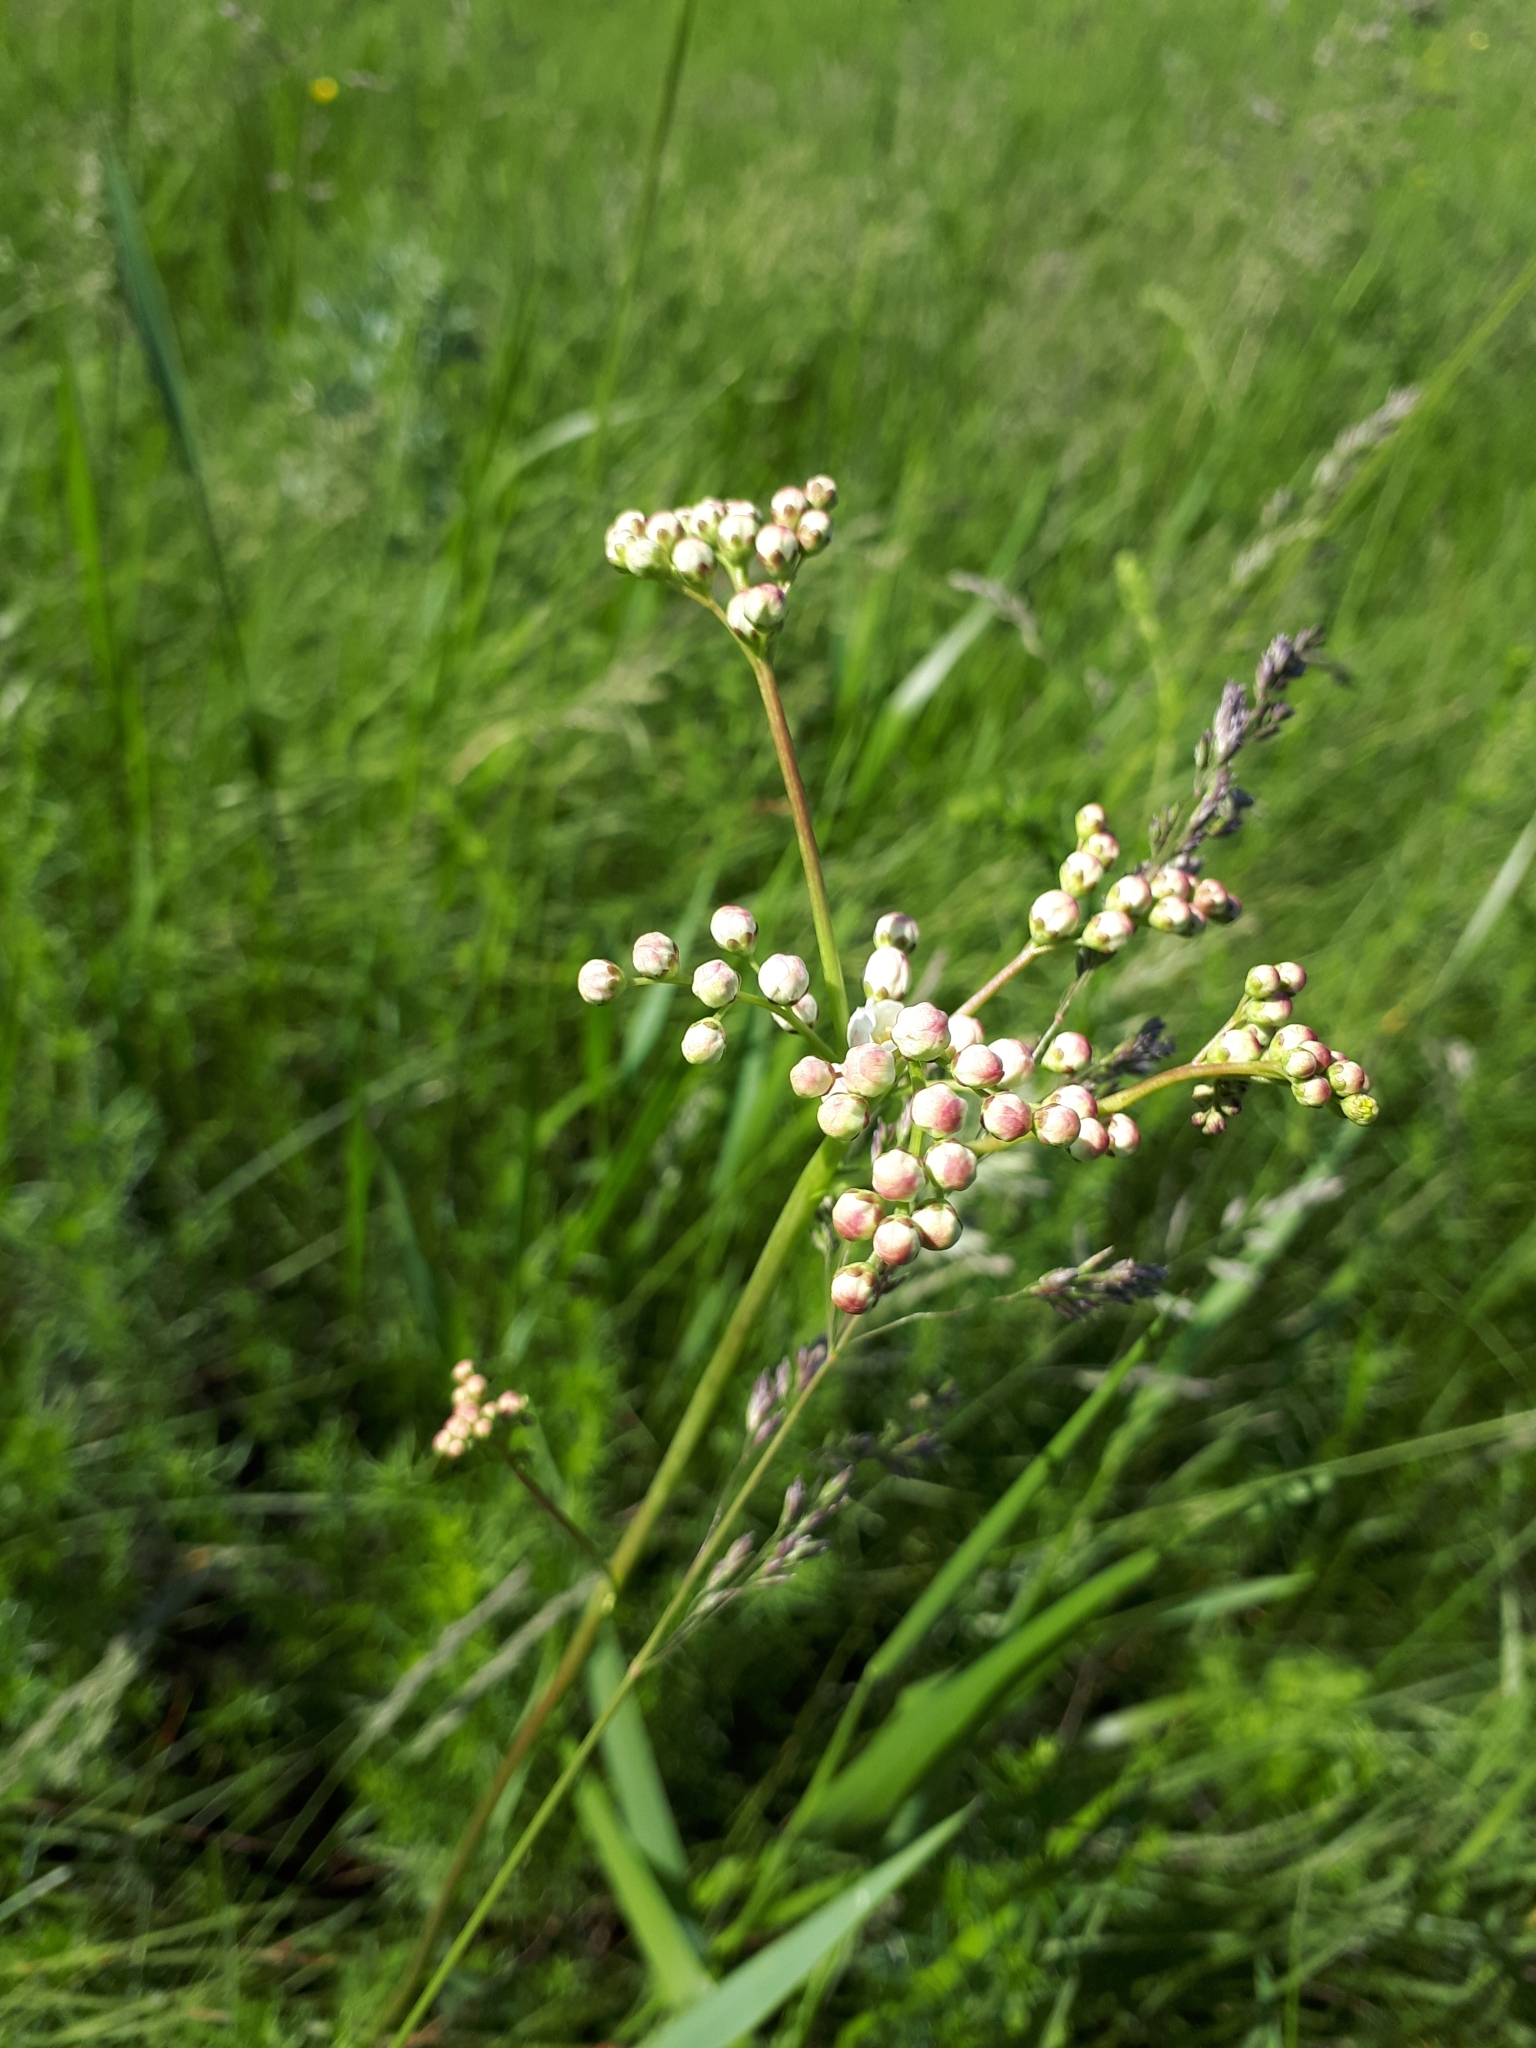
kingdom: Plantae
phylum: Tracheophyta
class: Magnoliopsida
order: Rosales
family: Rosaceae
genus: Filipendula
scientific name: Filipendula vulgaris
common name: Dropwort
